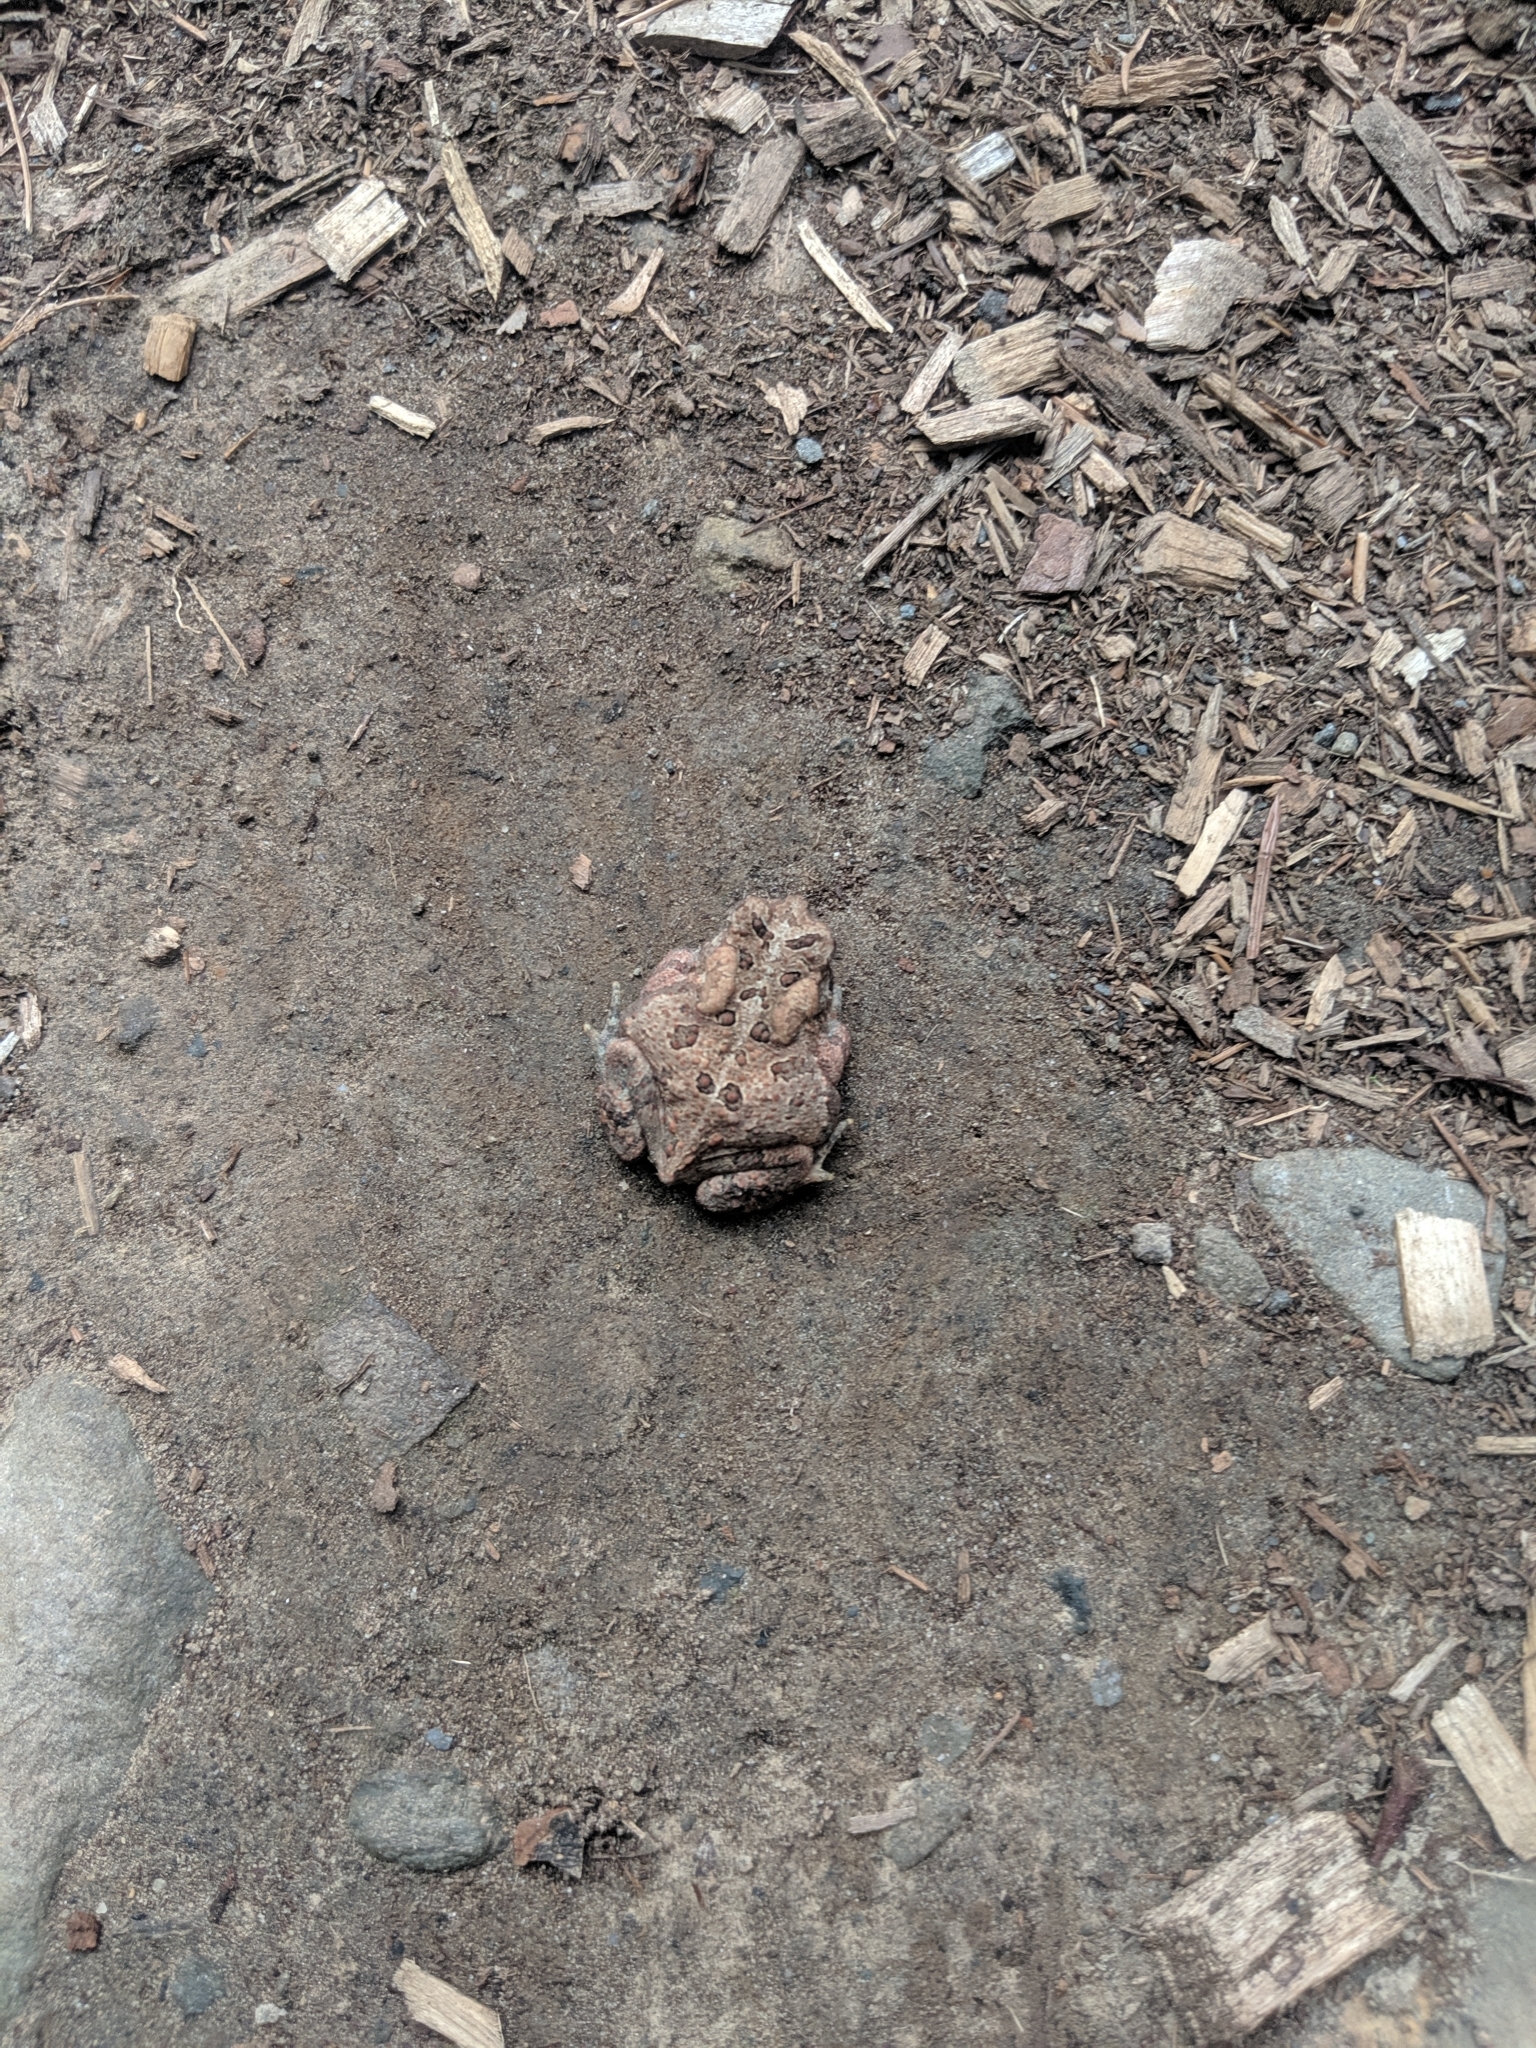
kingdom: Animalia
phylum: Chordata
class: Amphibia
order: Anura
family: Bufonidae
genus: Anaxyrus
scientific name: Anaxyrus americanus
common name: American toad
